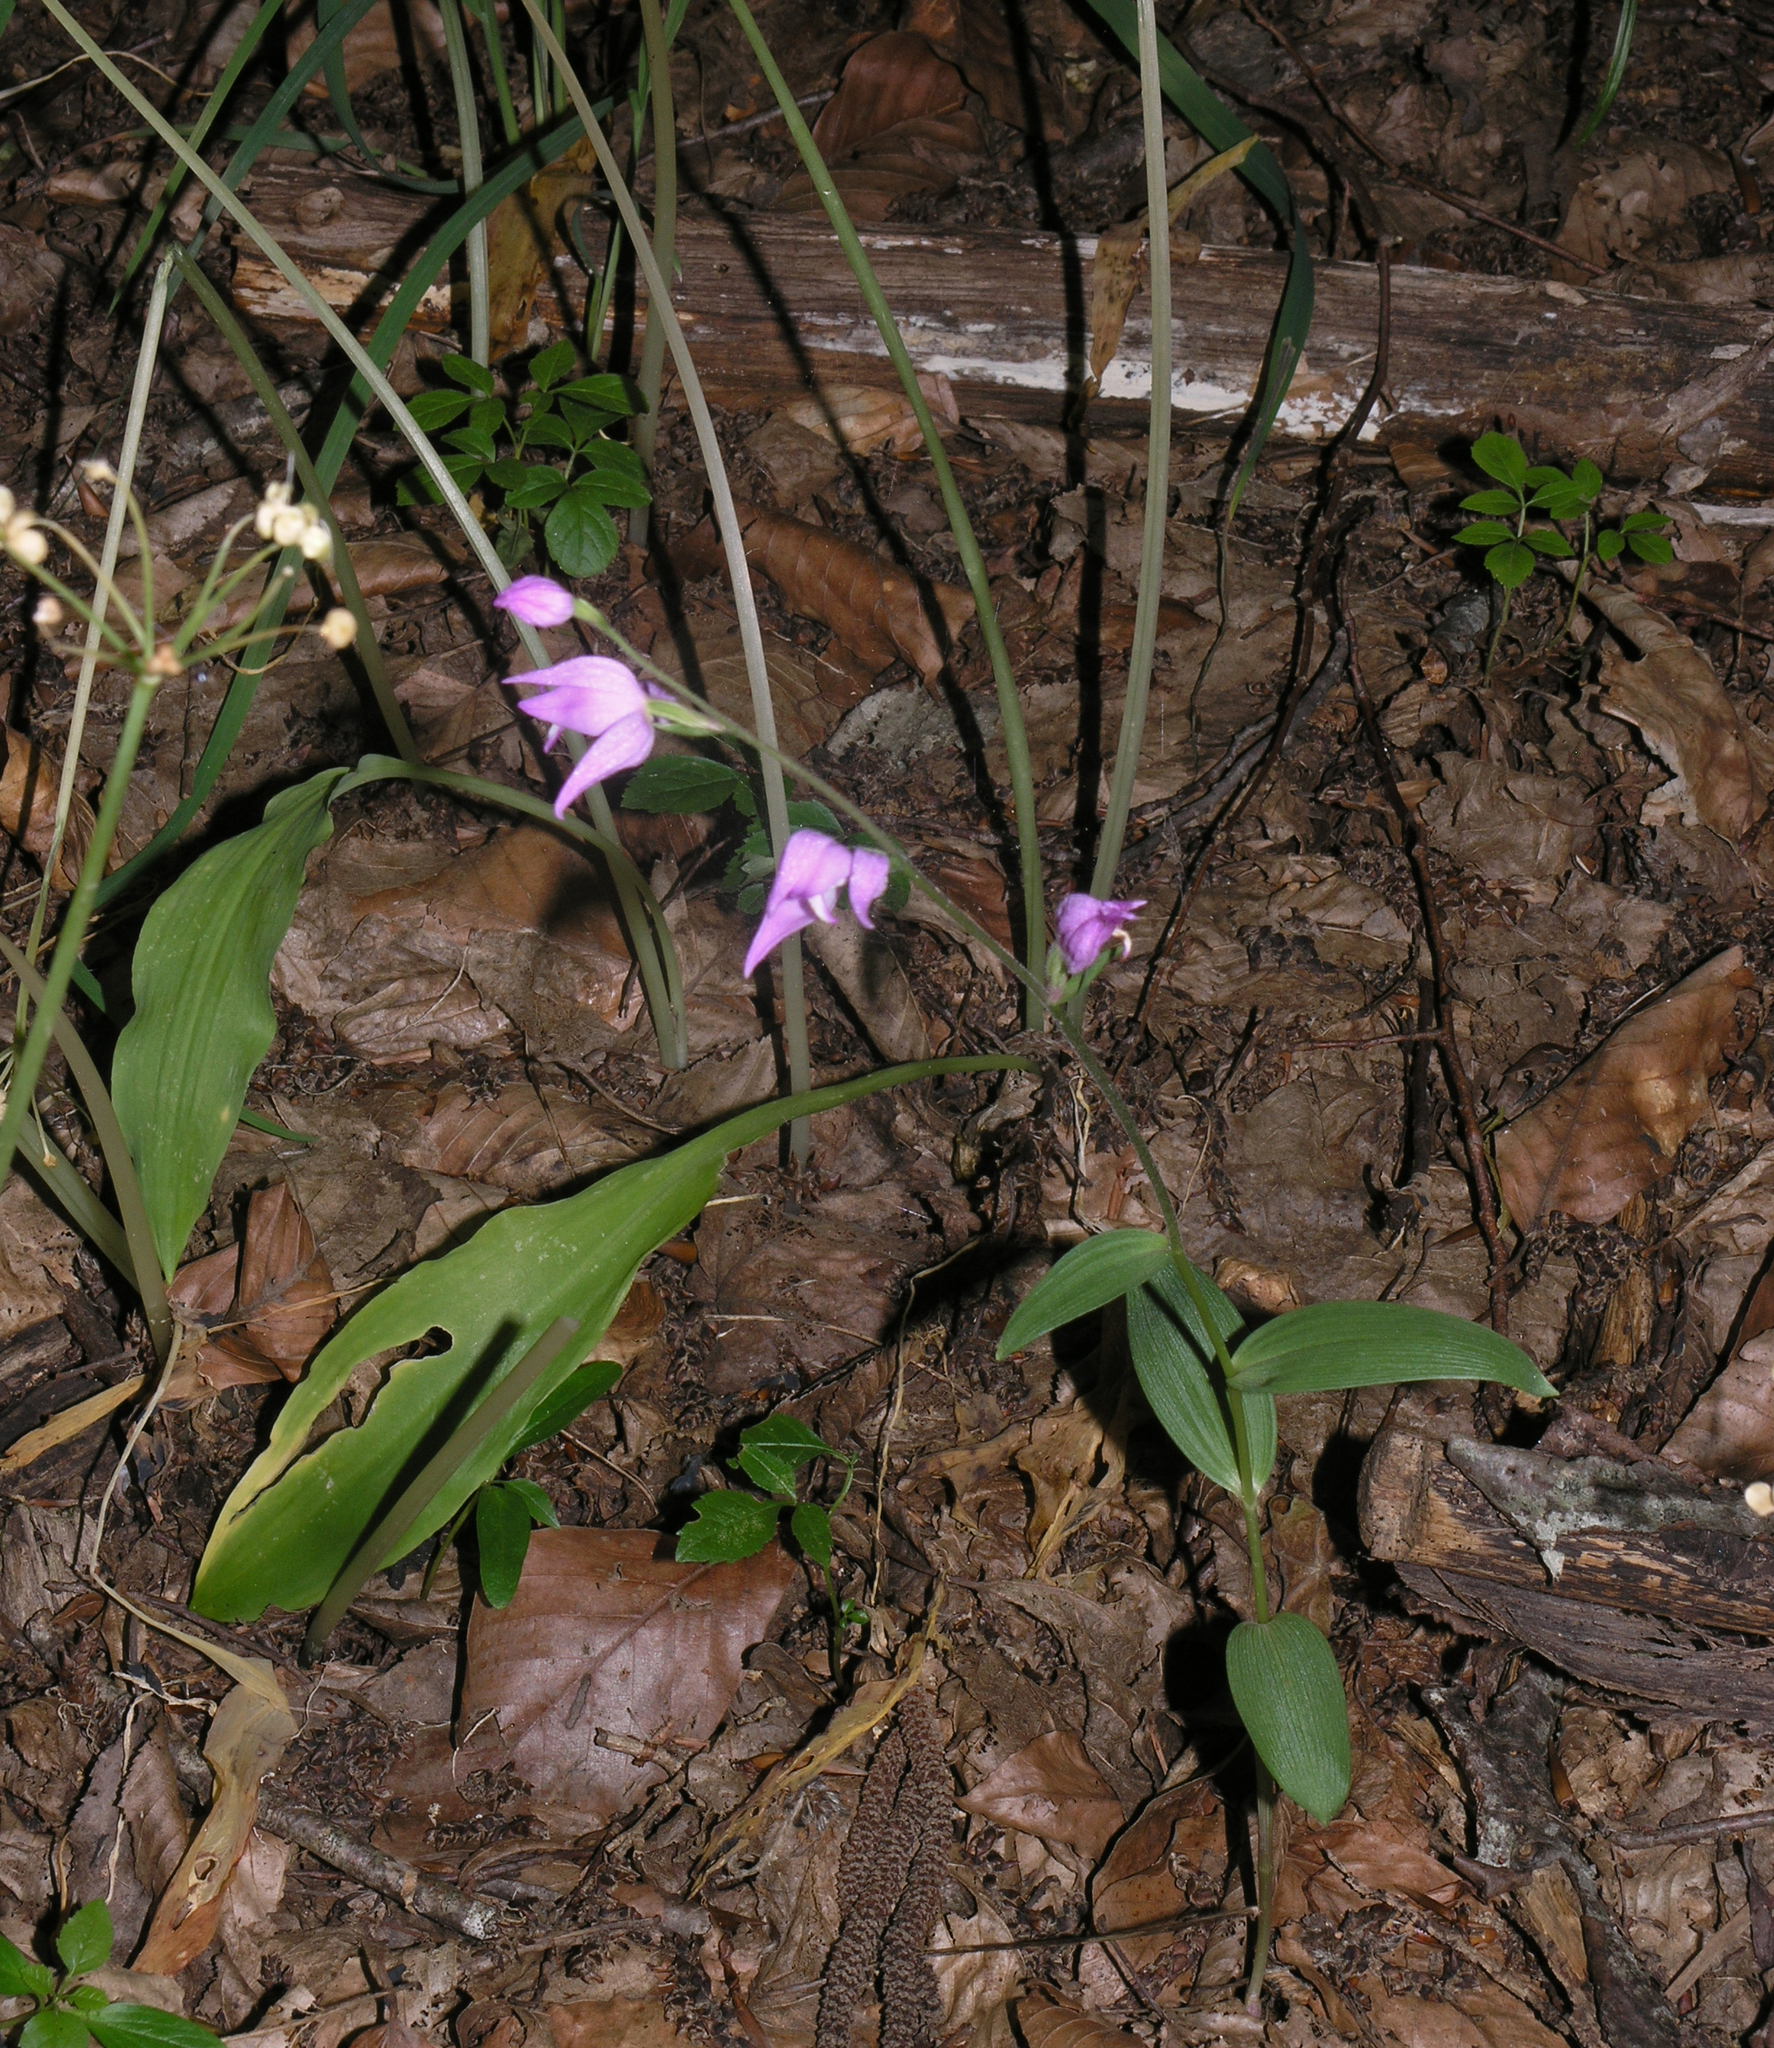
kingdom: Plantae
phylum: Tracheophyta
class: Liliopsida
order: Asparagales
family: Orchidaceae
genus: Cephalanthera
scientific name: Cephalanthera rubra
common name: Red helleborine
